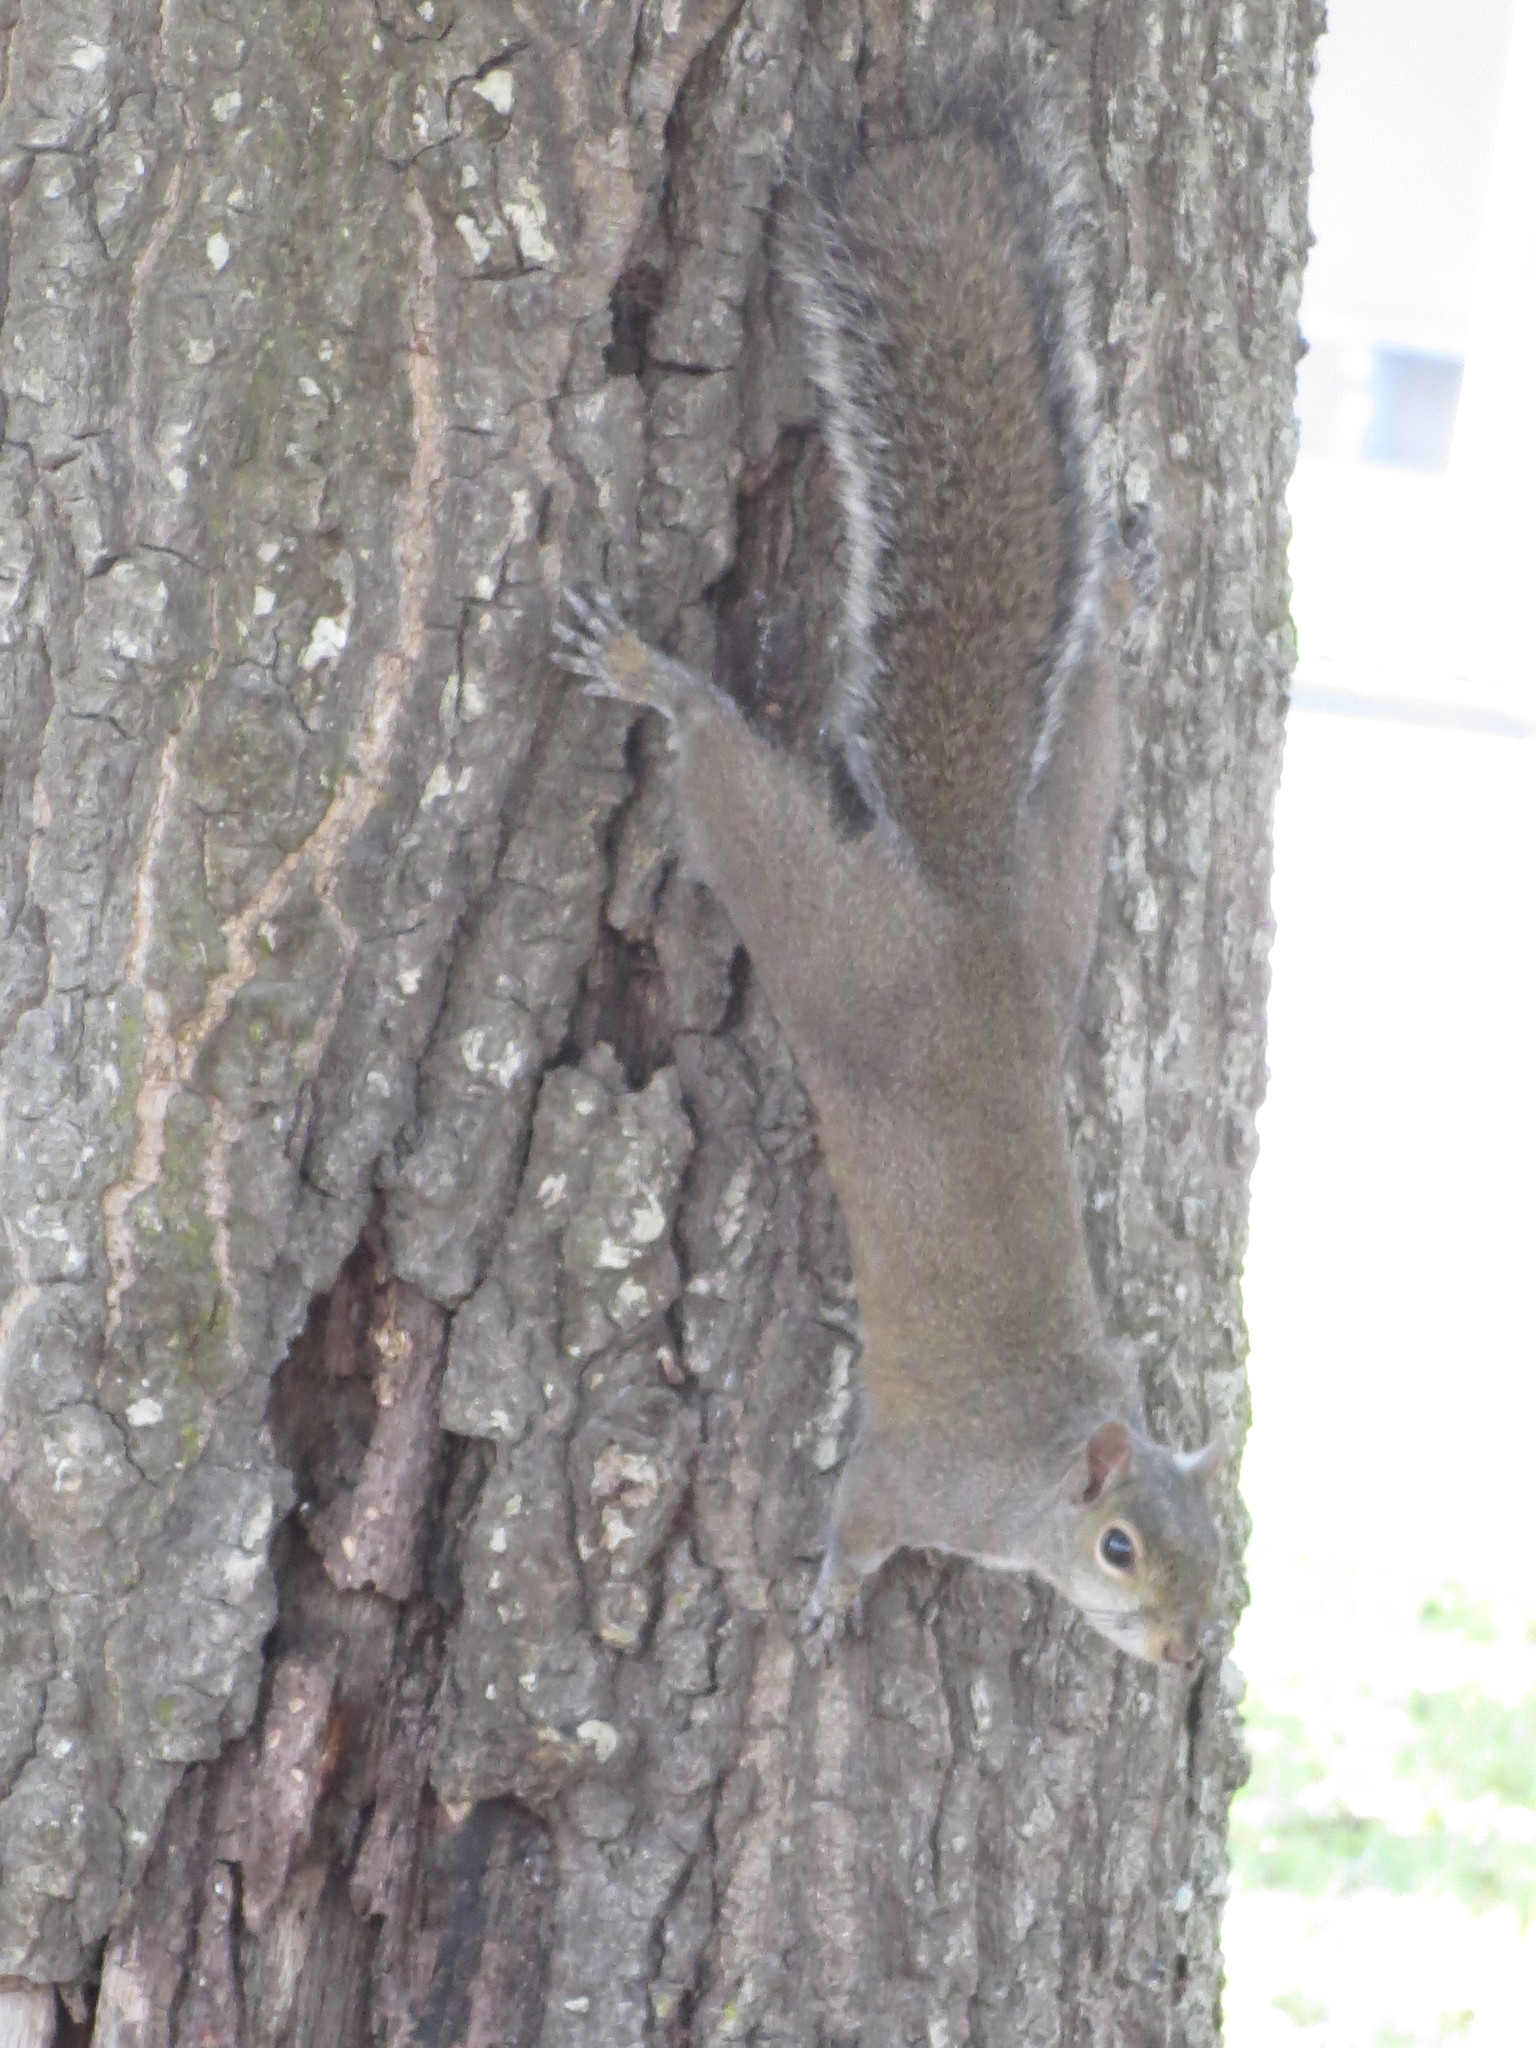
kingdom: Animalia
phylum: Chordata
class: Mammalia
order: Rodentia
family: Sciuridae
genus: Sciurus
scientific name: Sciurus carolinensis
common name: Eastern gray squirrel
